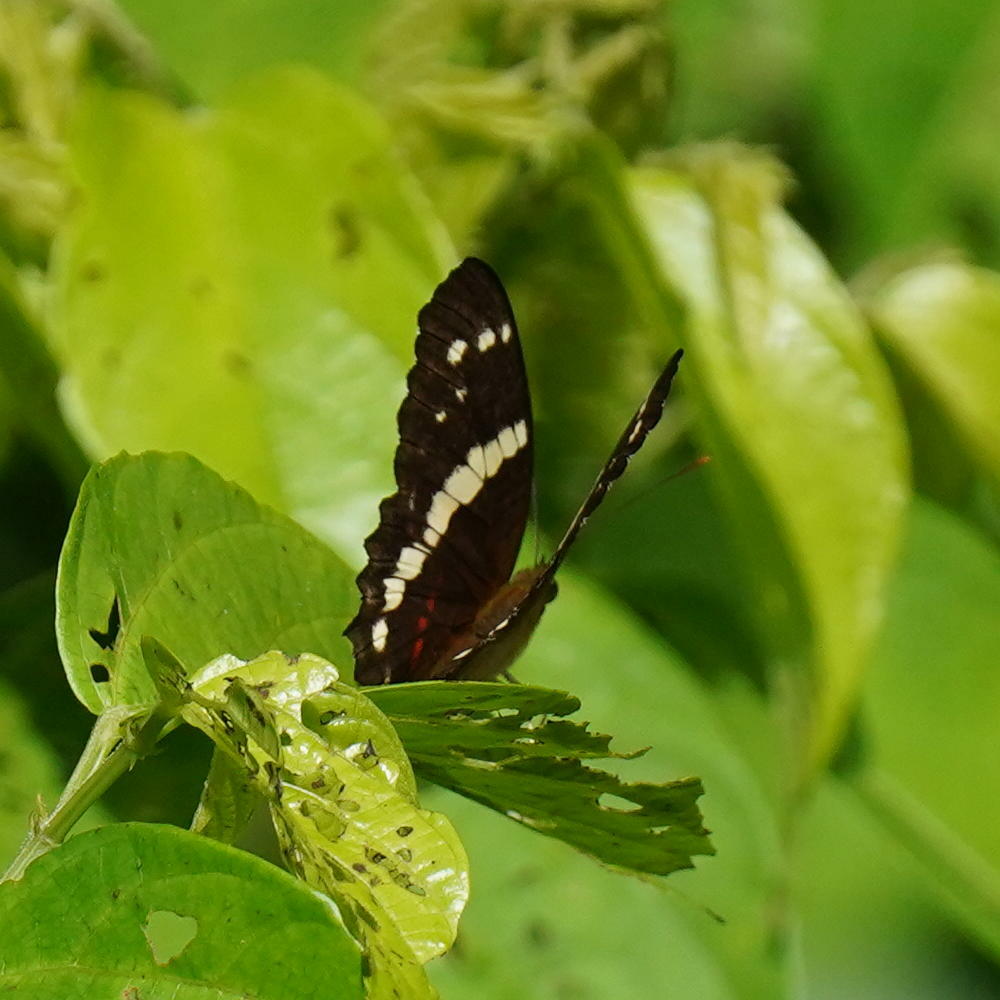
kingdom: Animalia
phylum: Arthropoda
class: Insecta
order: Lepidoptera
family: Nymphalidae
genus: Anartia
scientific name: Anartia fatima
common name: Banded peacock
